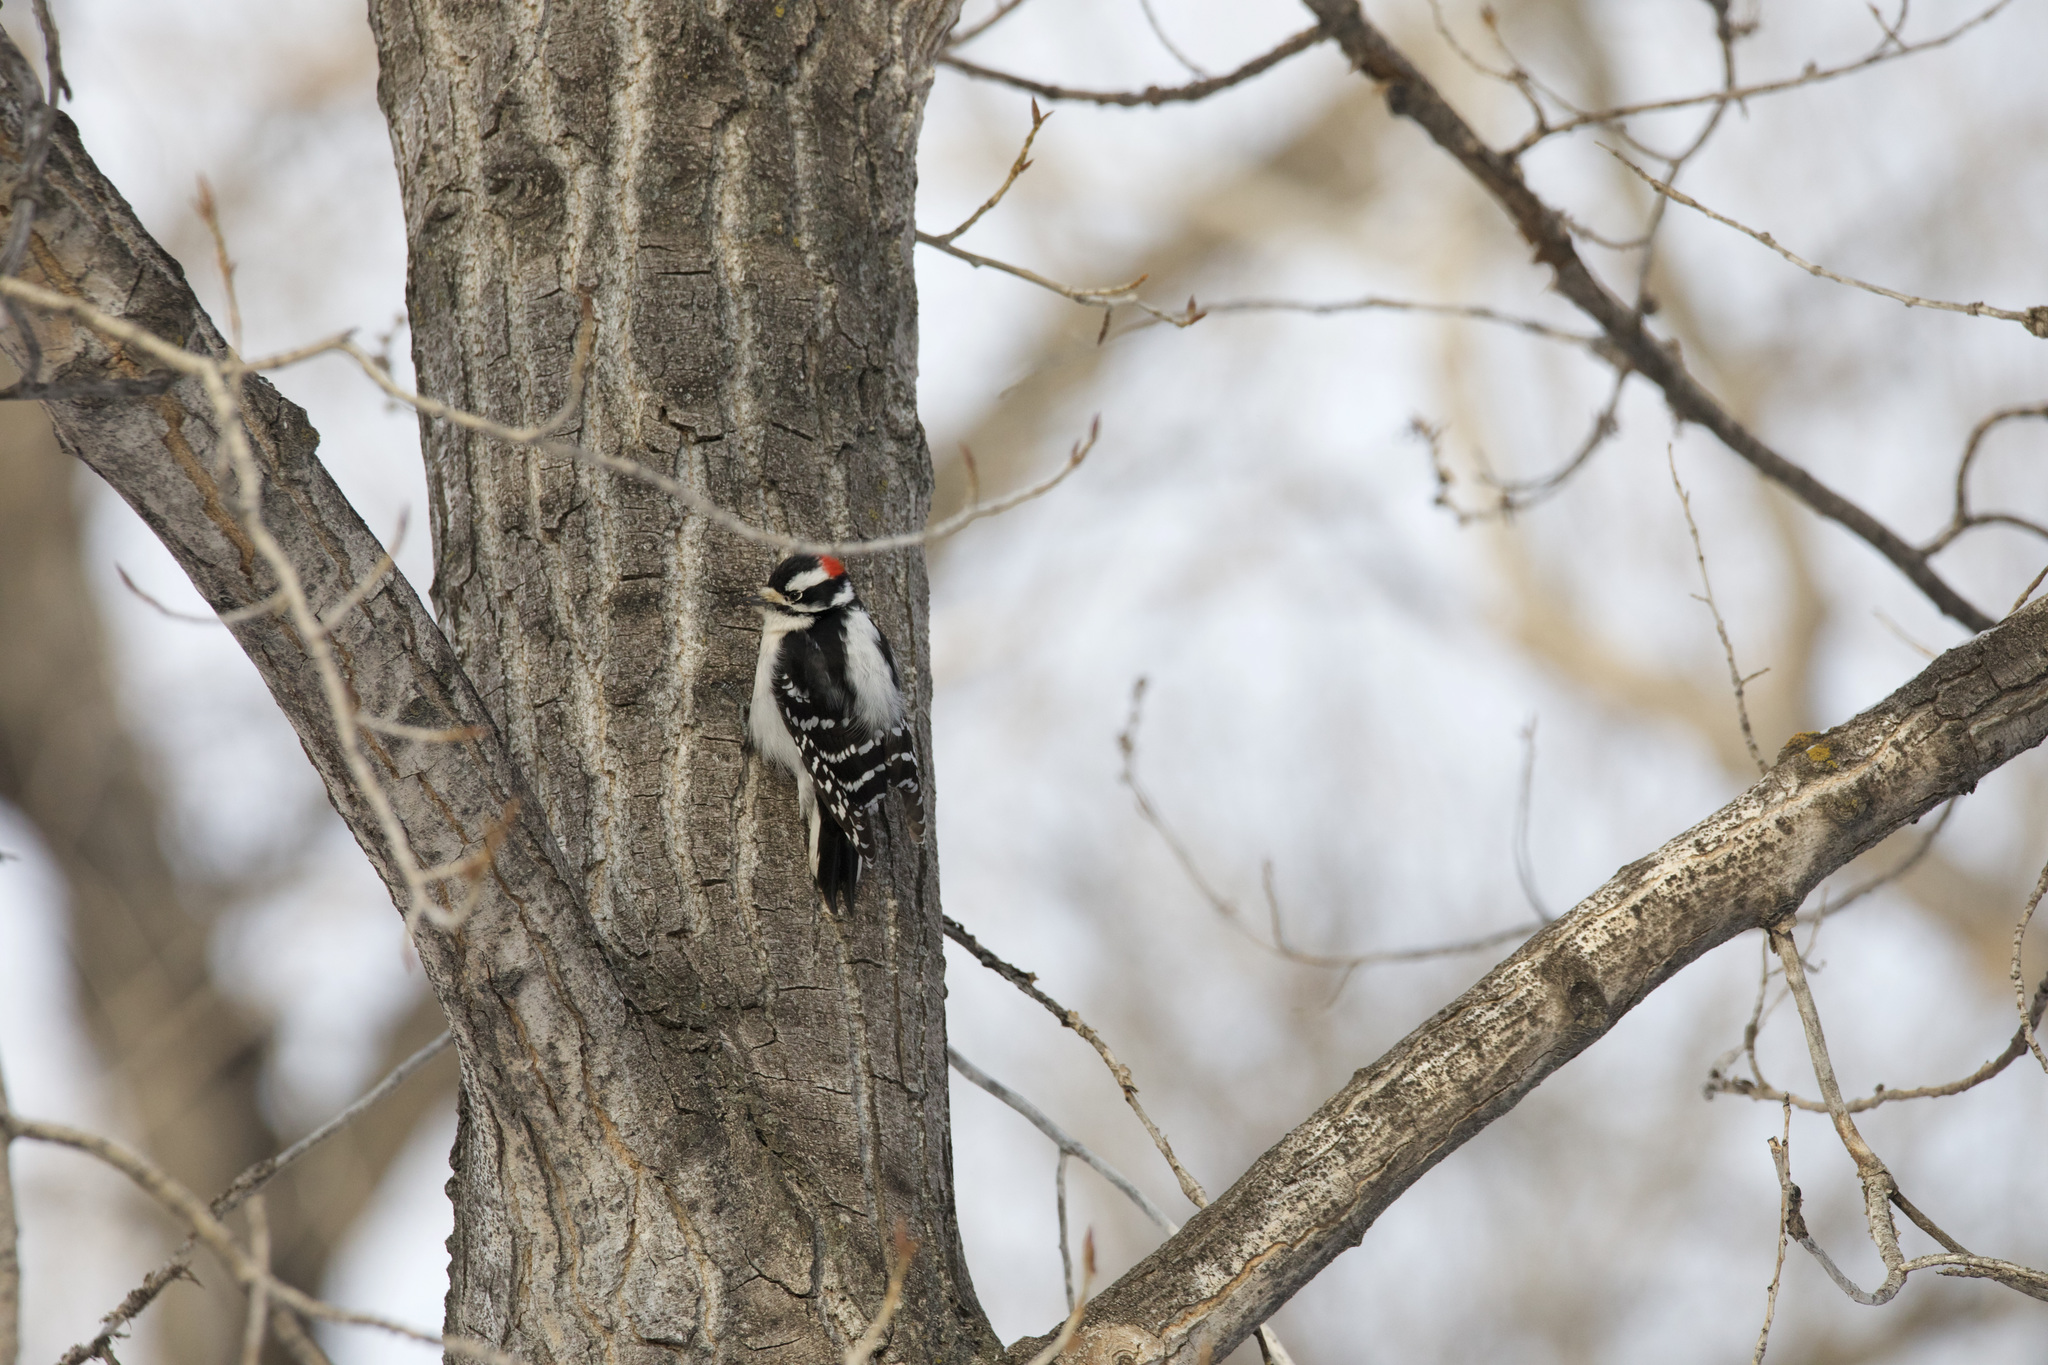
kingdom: Animalia
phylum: Chordata
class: Aves
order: Piciformes
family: Picidae
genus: Dryobates
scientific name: Dryobates pubescens
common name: Downy woodpecker
